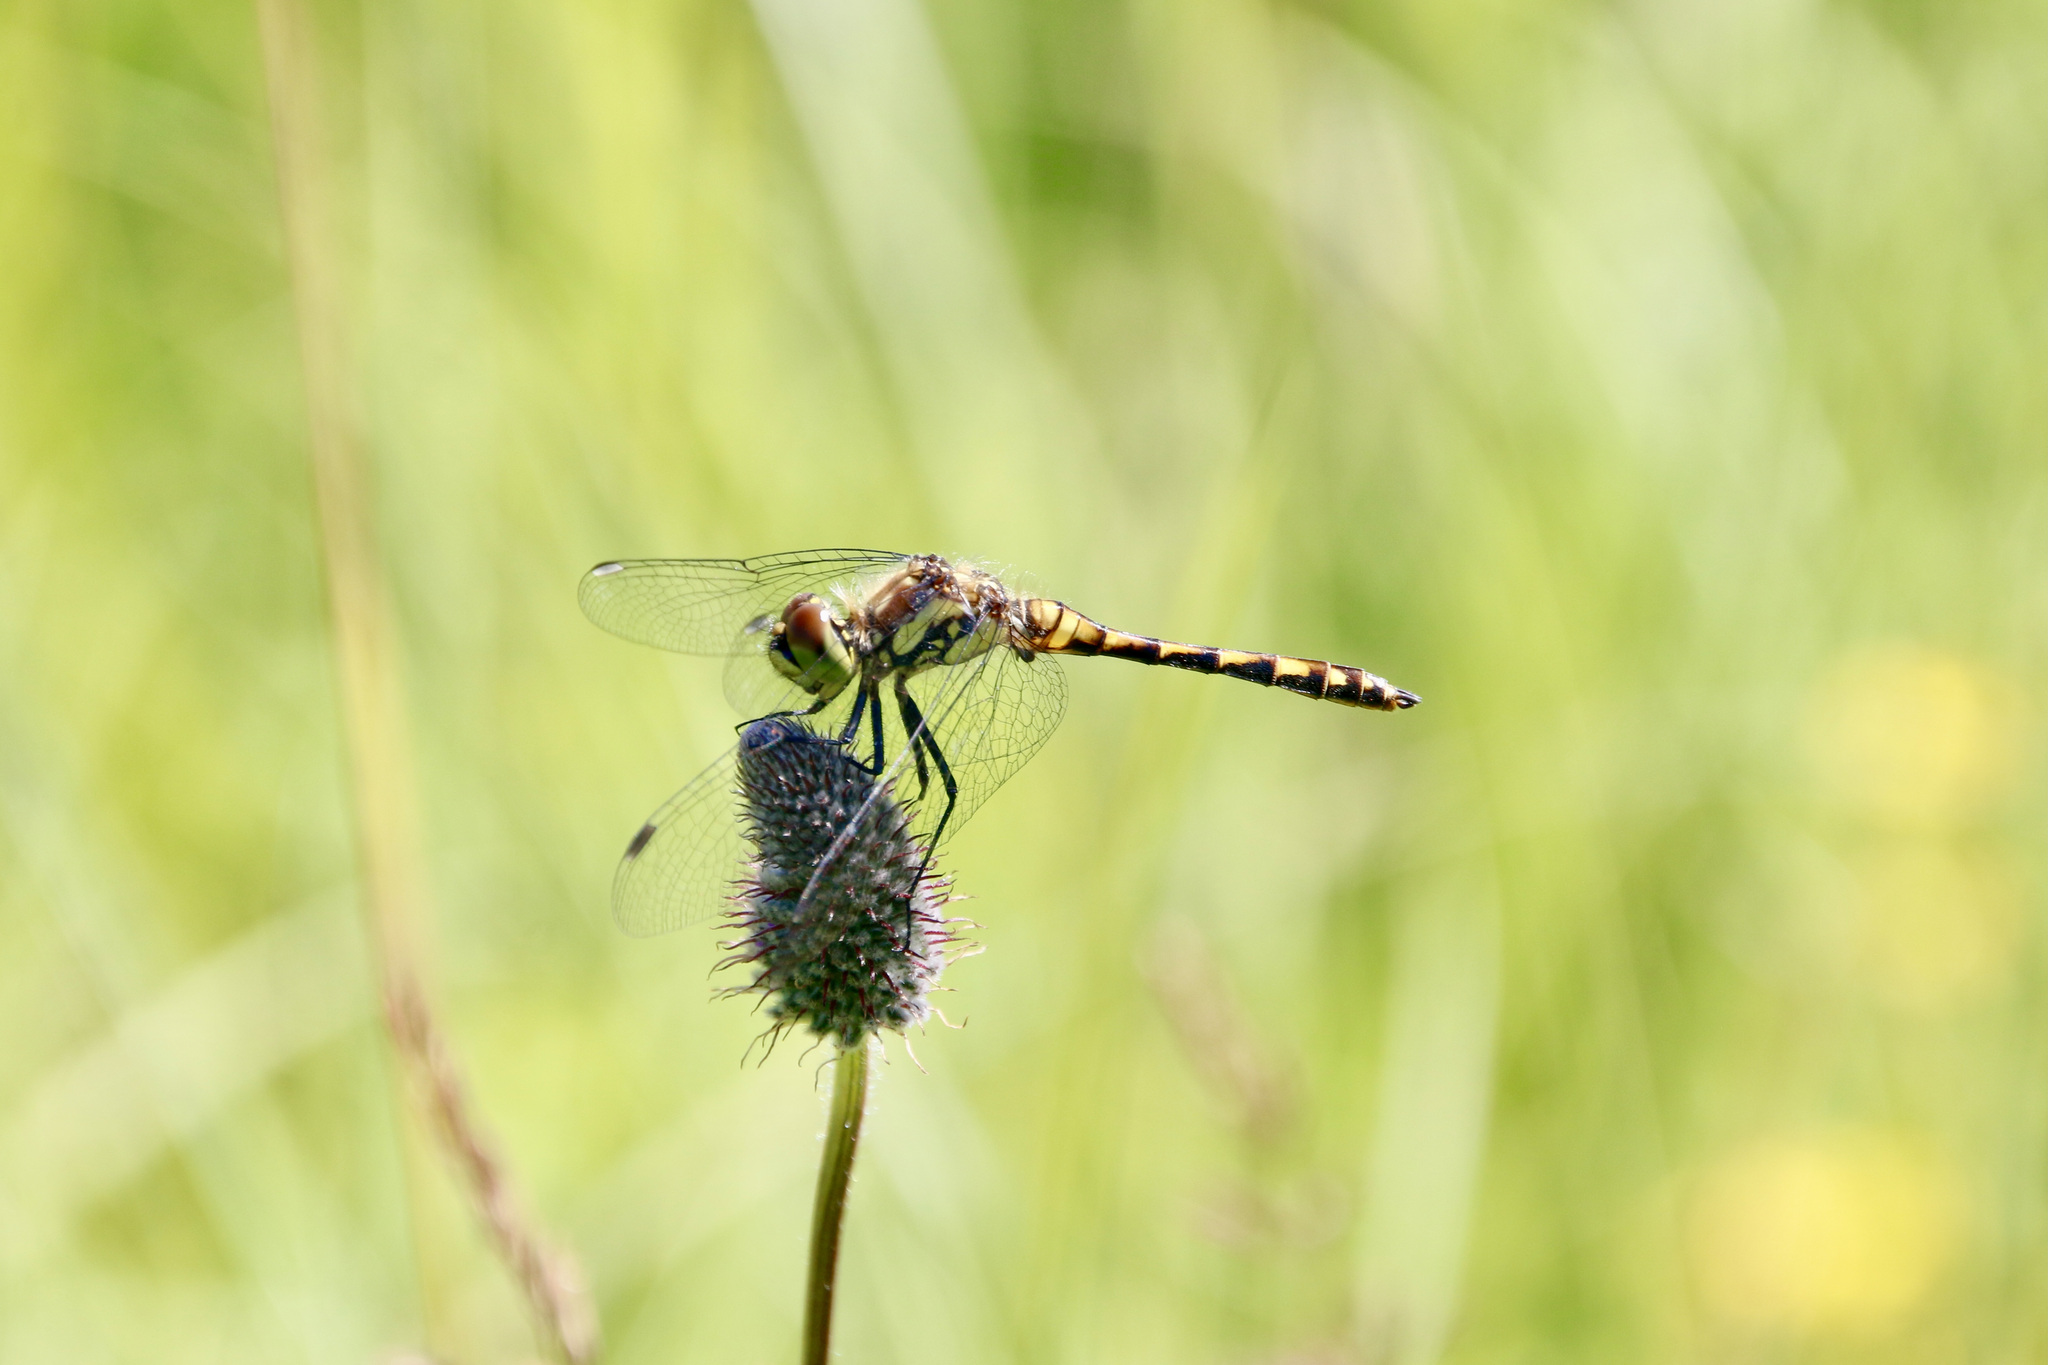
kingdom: Animalia
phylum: Arthropoda
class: Insecta
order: Odonata
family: Libellulidae
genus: Sympetrum
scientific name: Sympetrum danae
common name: Black darter
